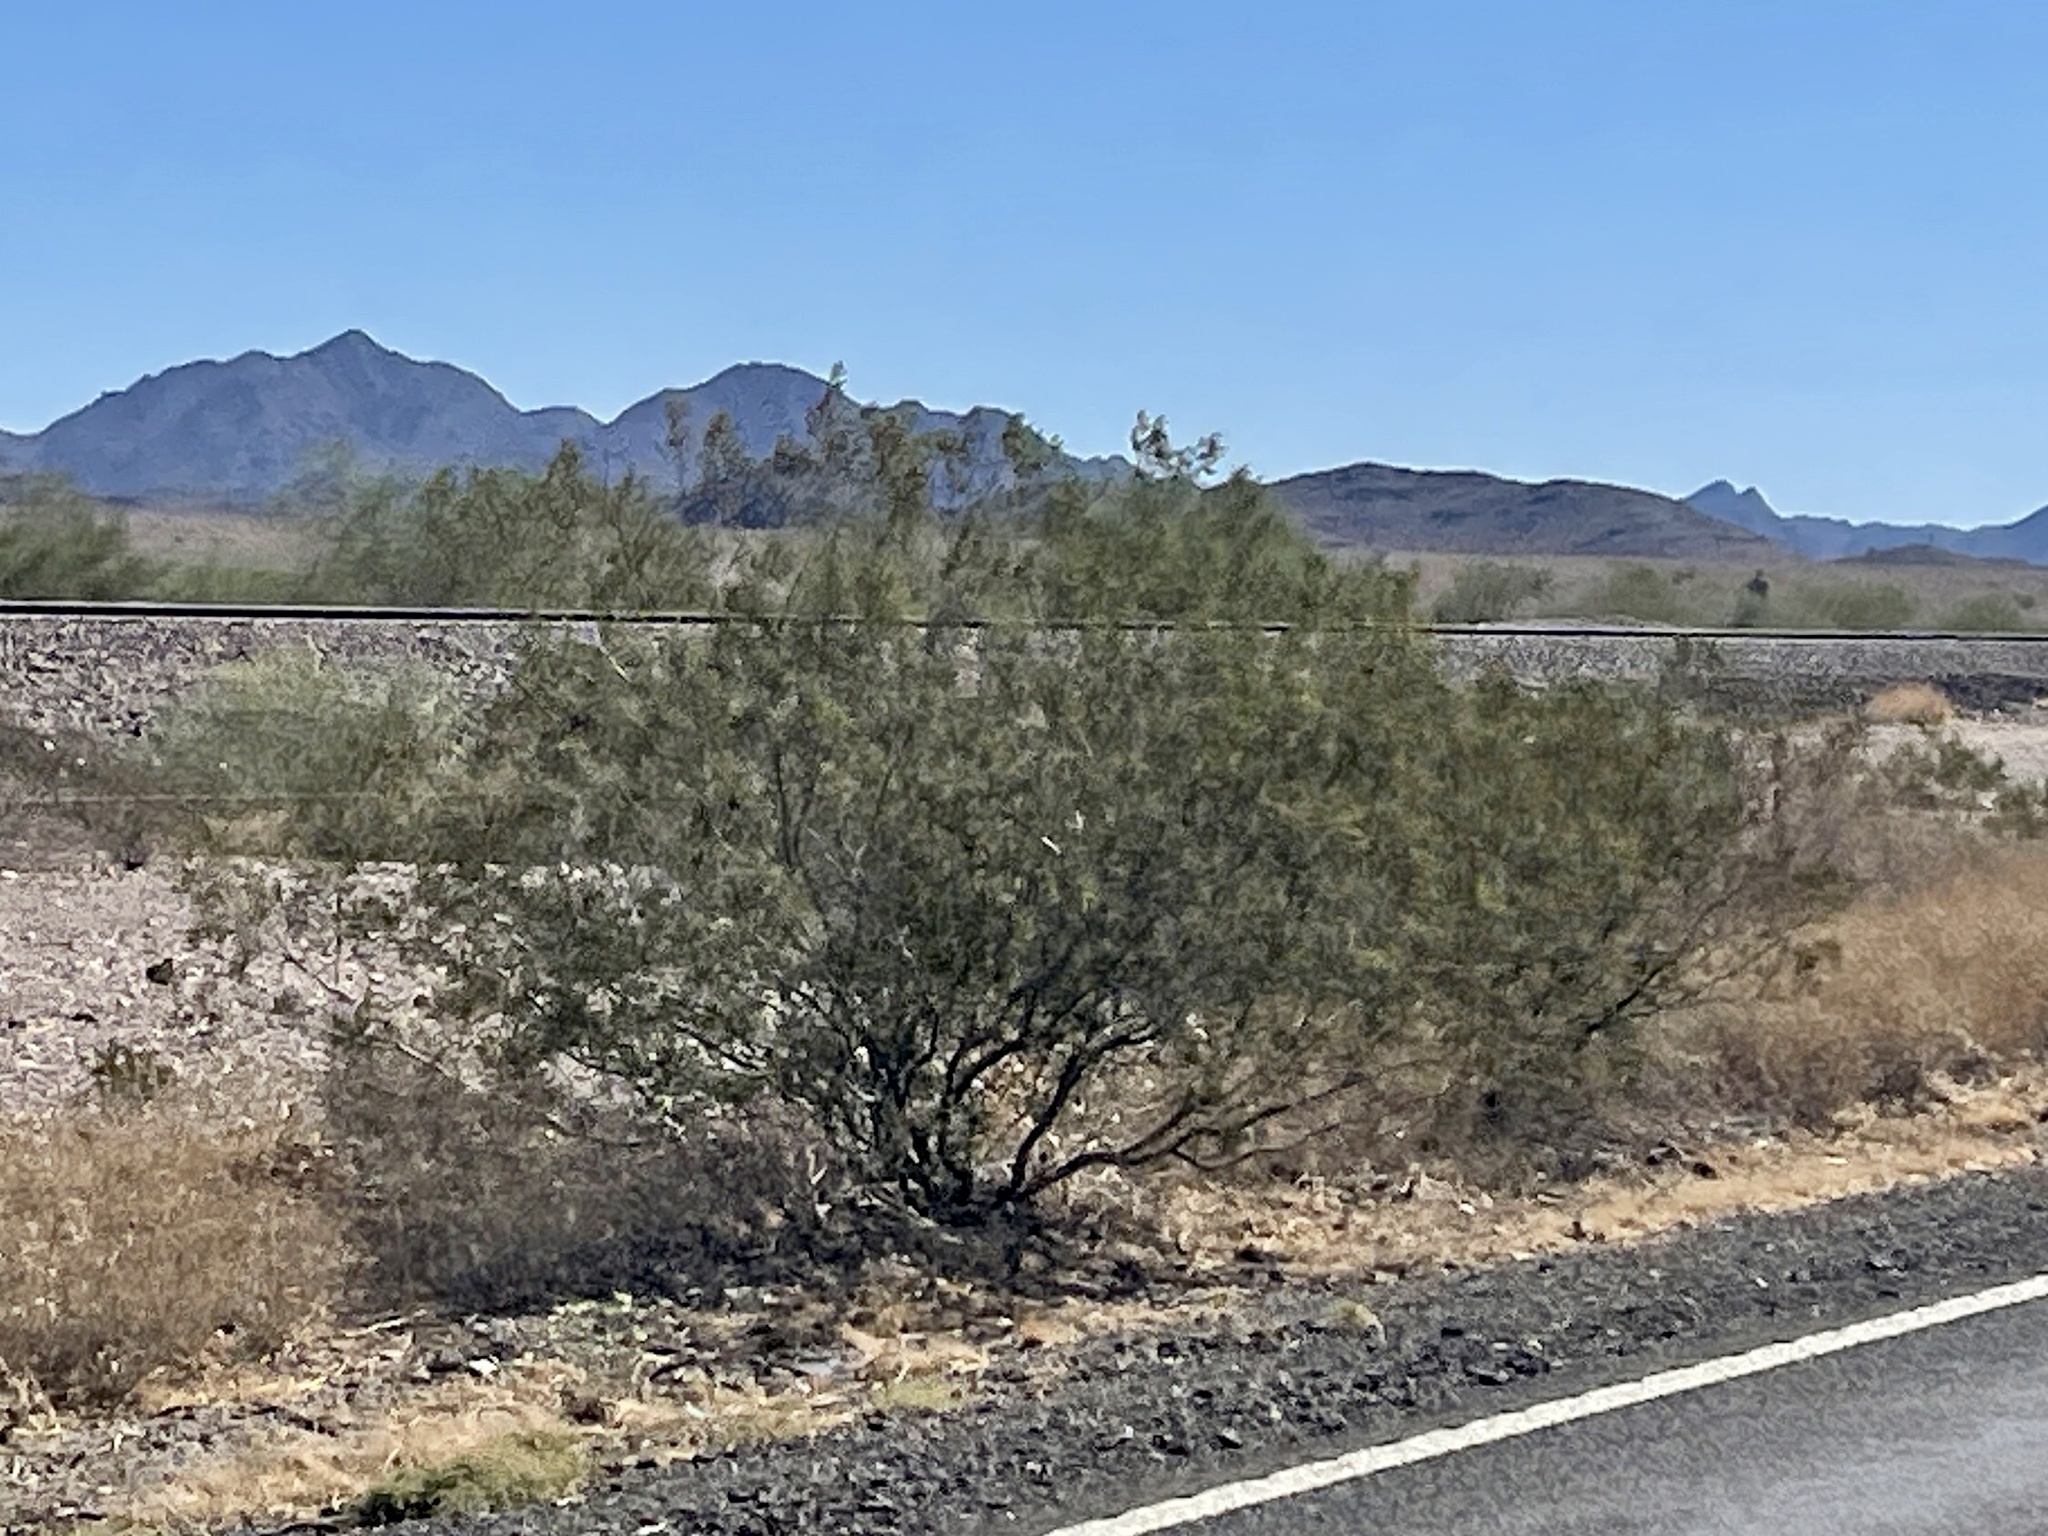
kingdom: Plantae
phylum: Tracheophyta
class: Magnoliopsida
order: Zygophyllales
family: Zygophyllaceae
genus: Larrea
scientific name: Larrea tridentata
